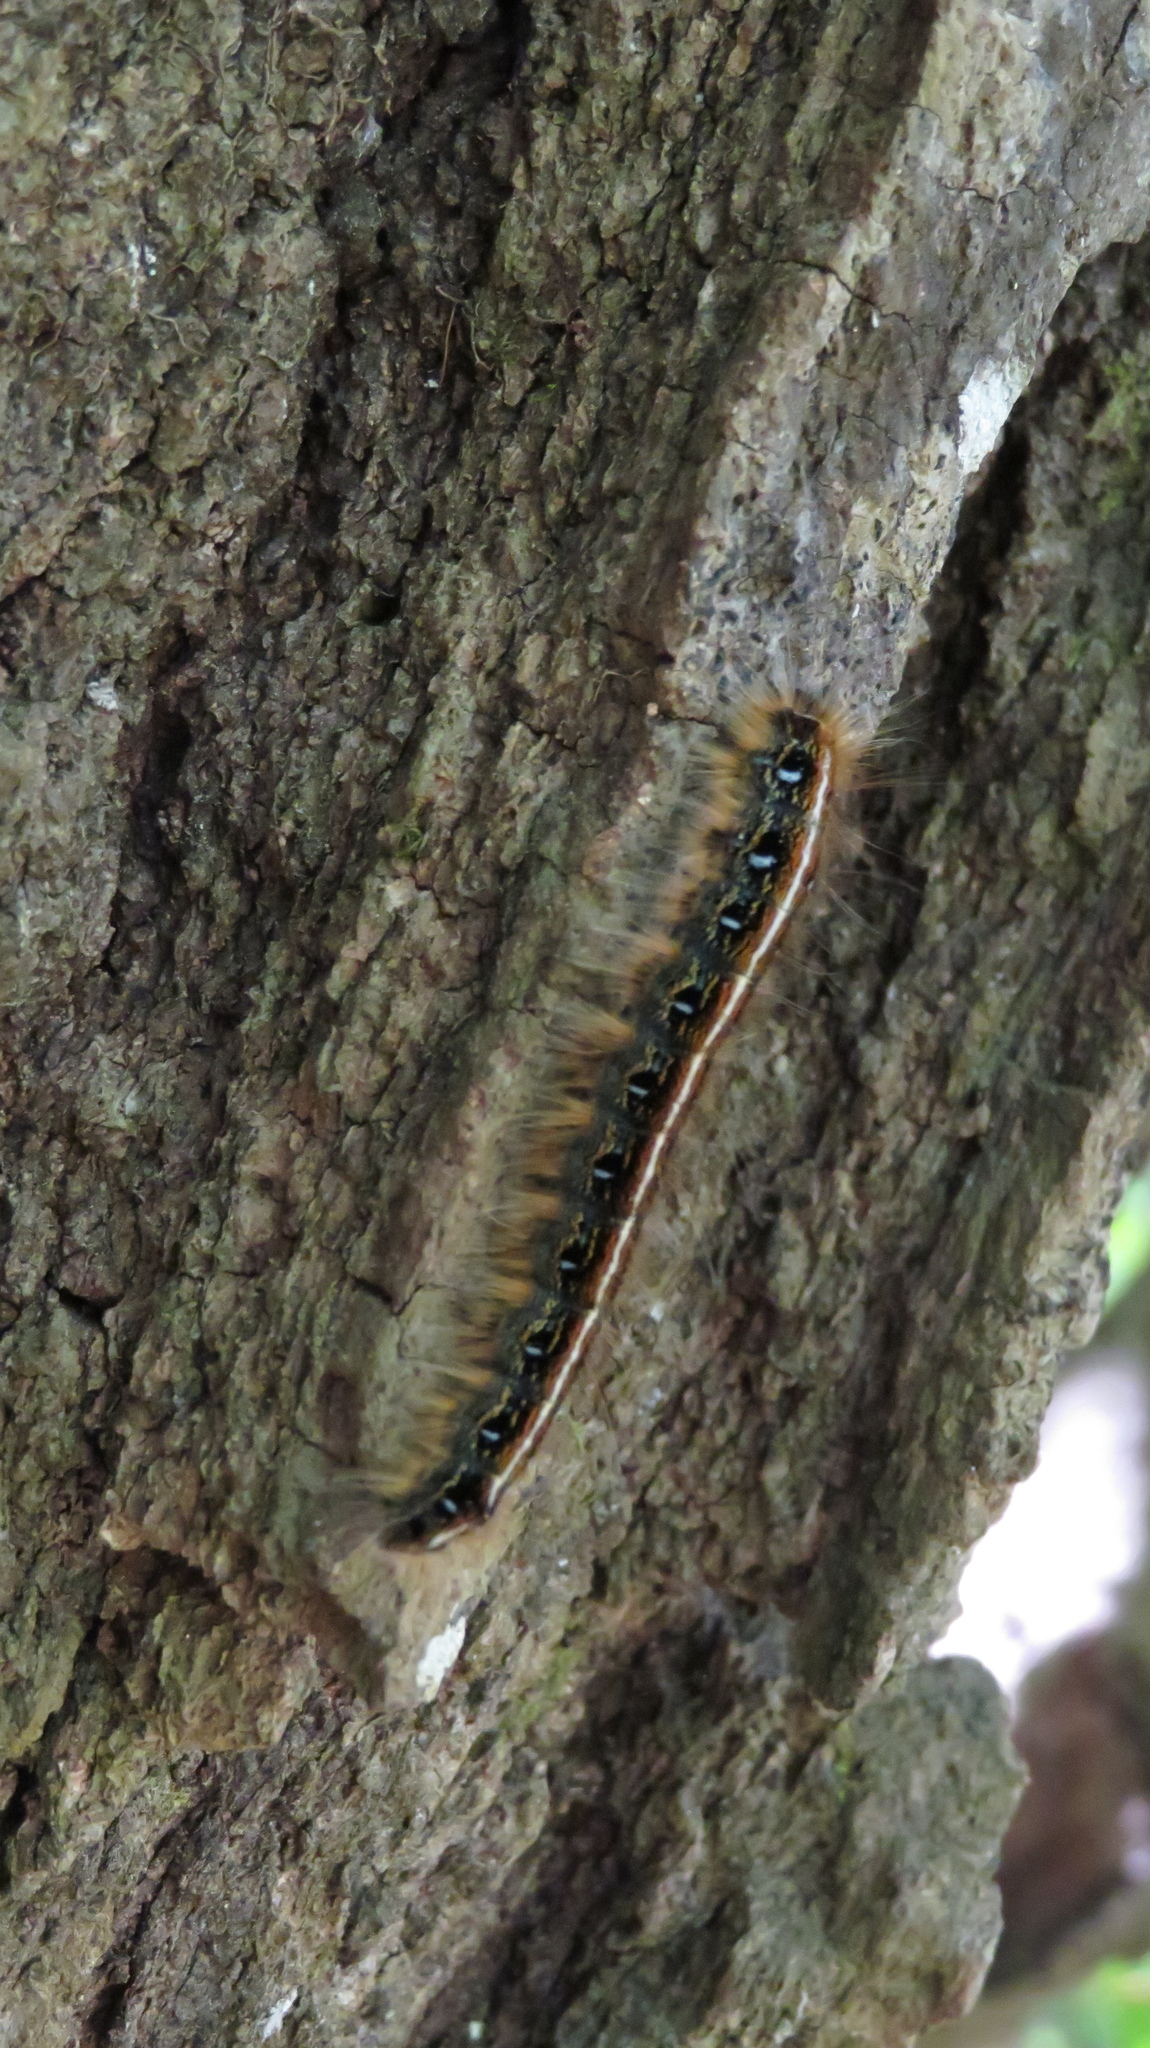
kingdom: Animalia
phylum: Arthropoda
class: Insecta
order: Lepidoptera
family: Lasiocampidae
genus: Malacosoma
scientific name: Malacosoma americana
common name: Eastern tent caterpillar moth
